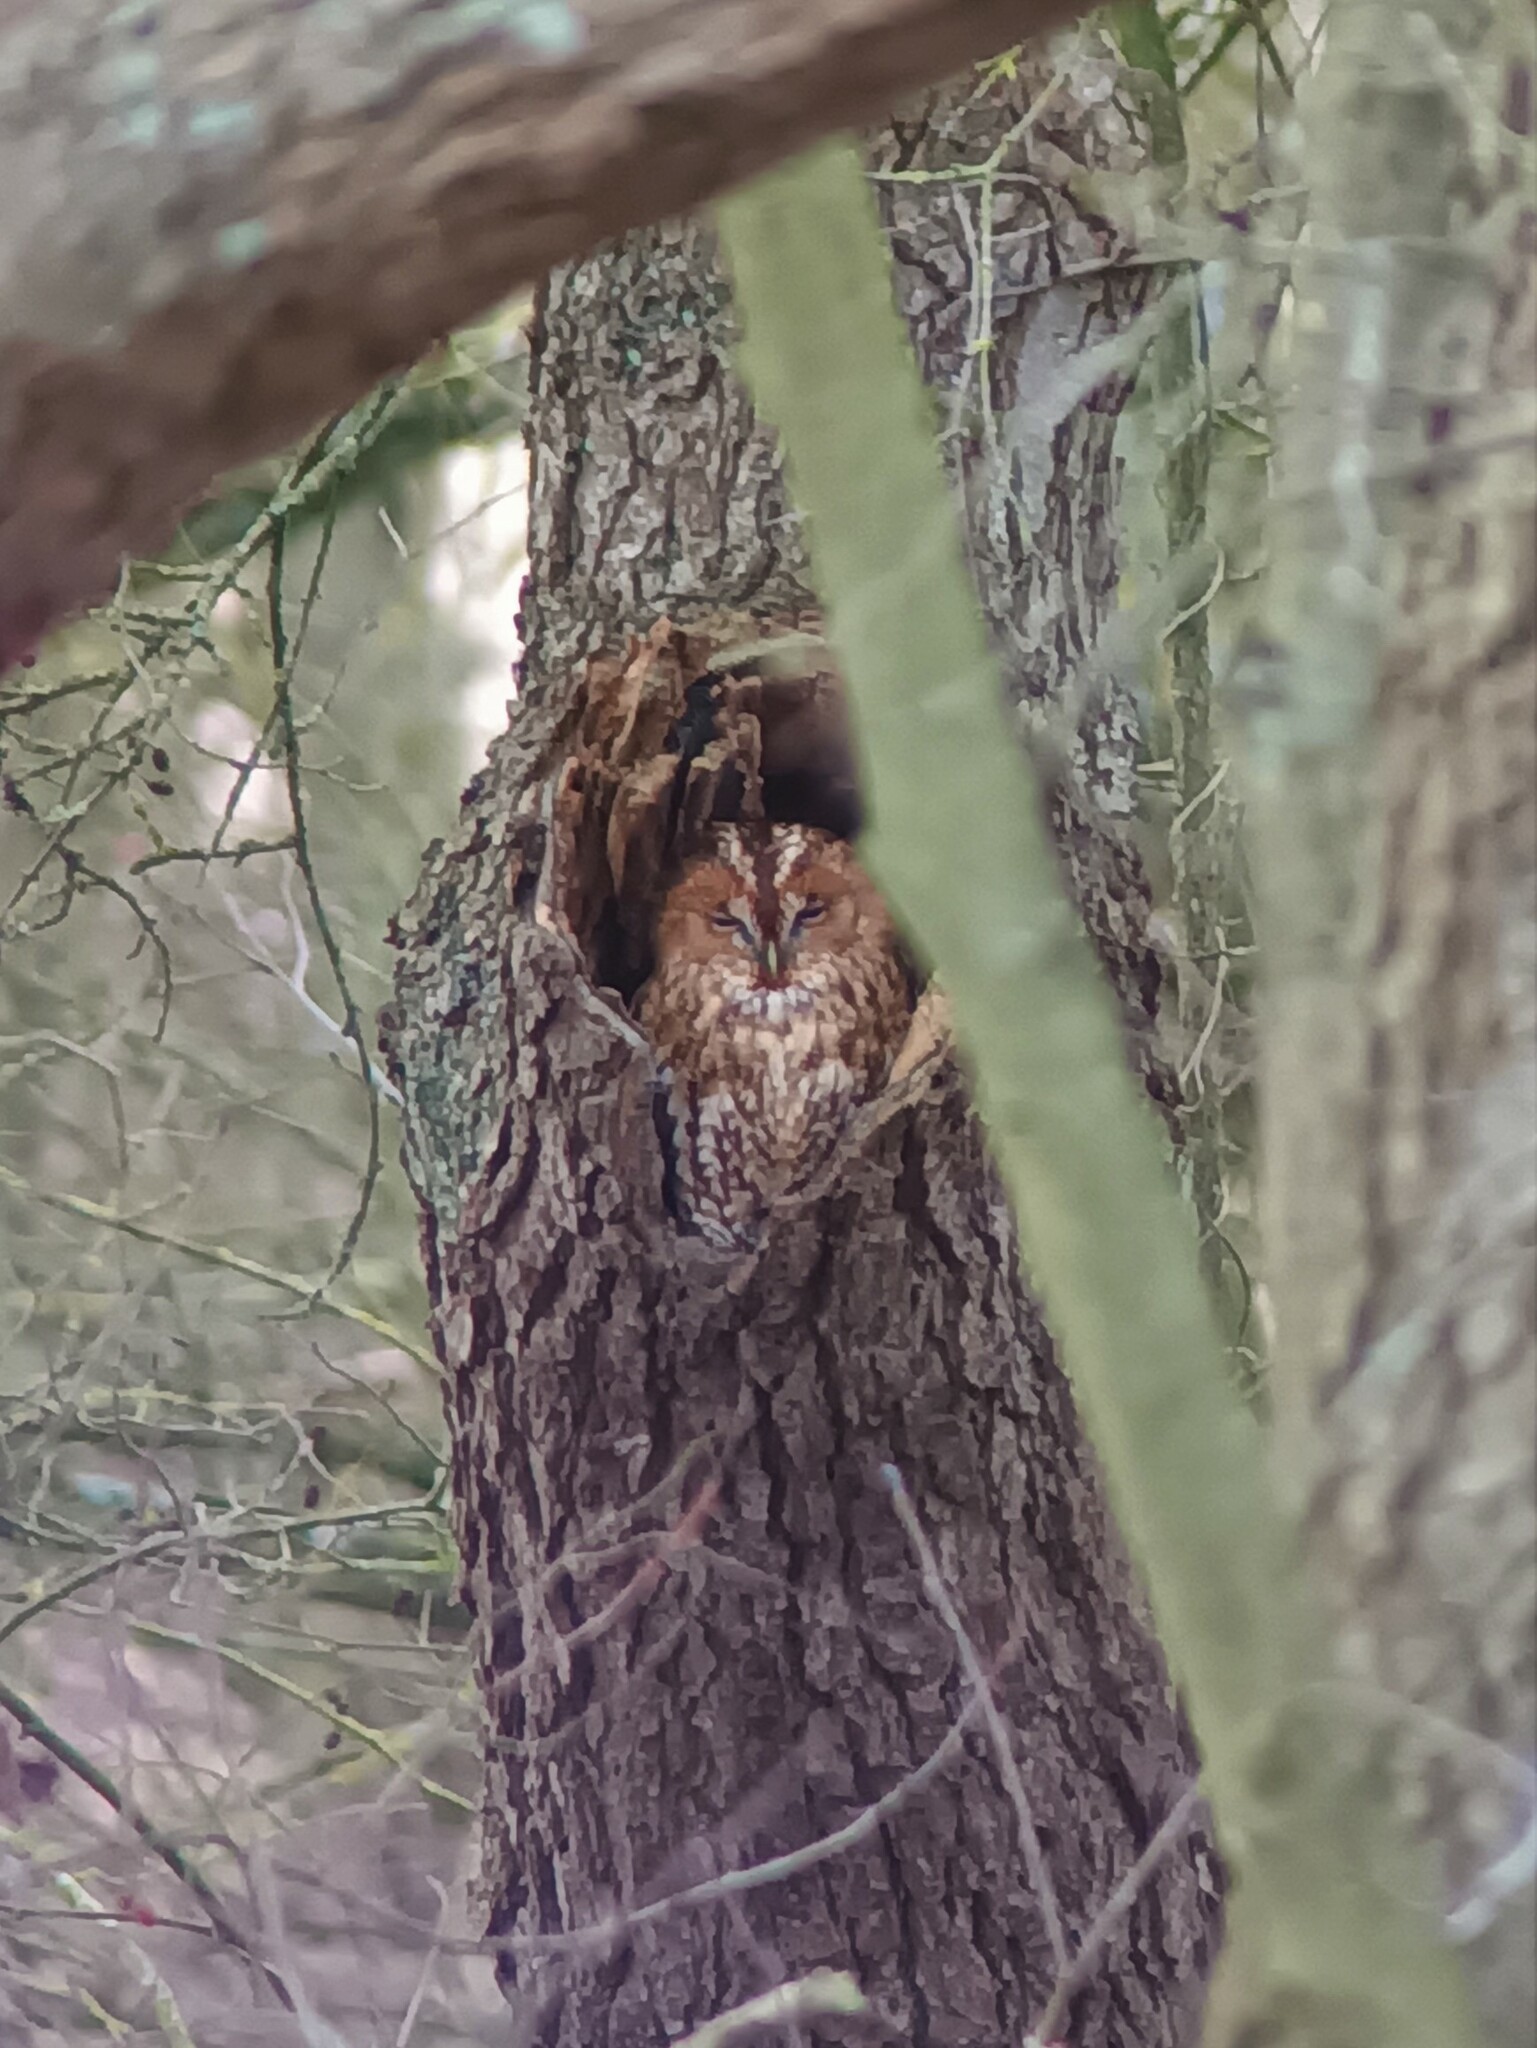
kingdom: Animalia
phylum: Chordata
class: Aves
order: Strigiformes
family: Strigidae
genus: Strix
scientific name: Strix aluco
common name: Tawny owl
